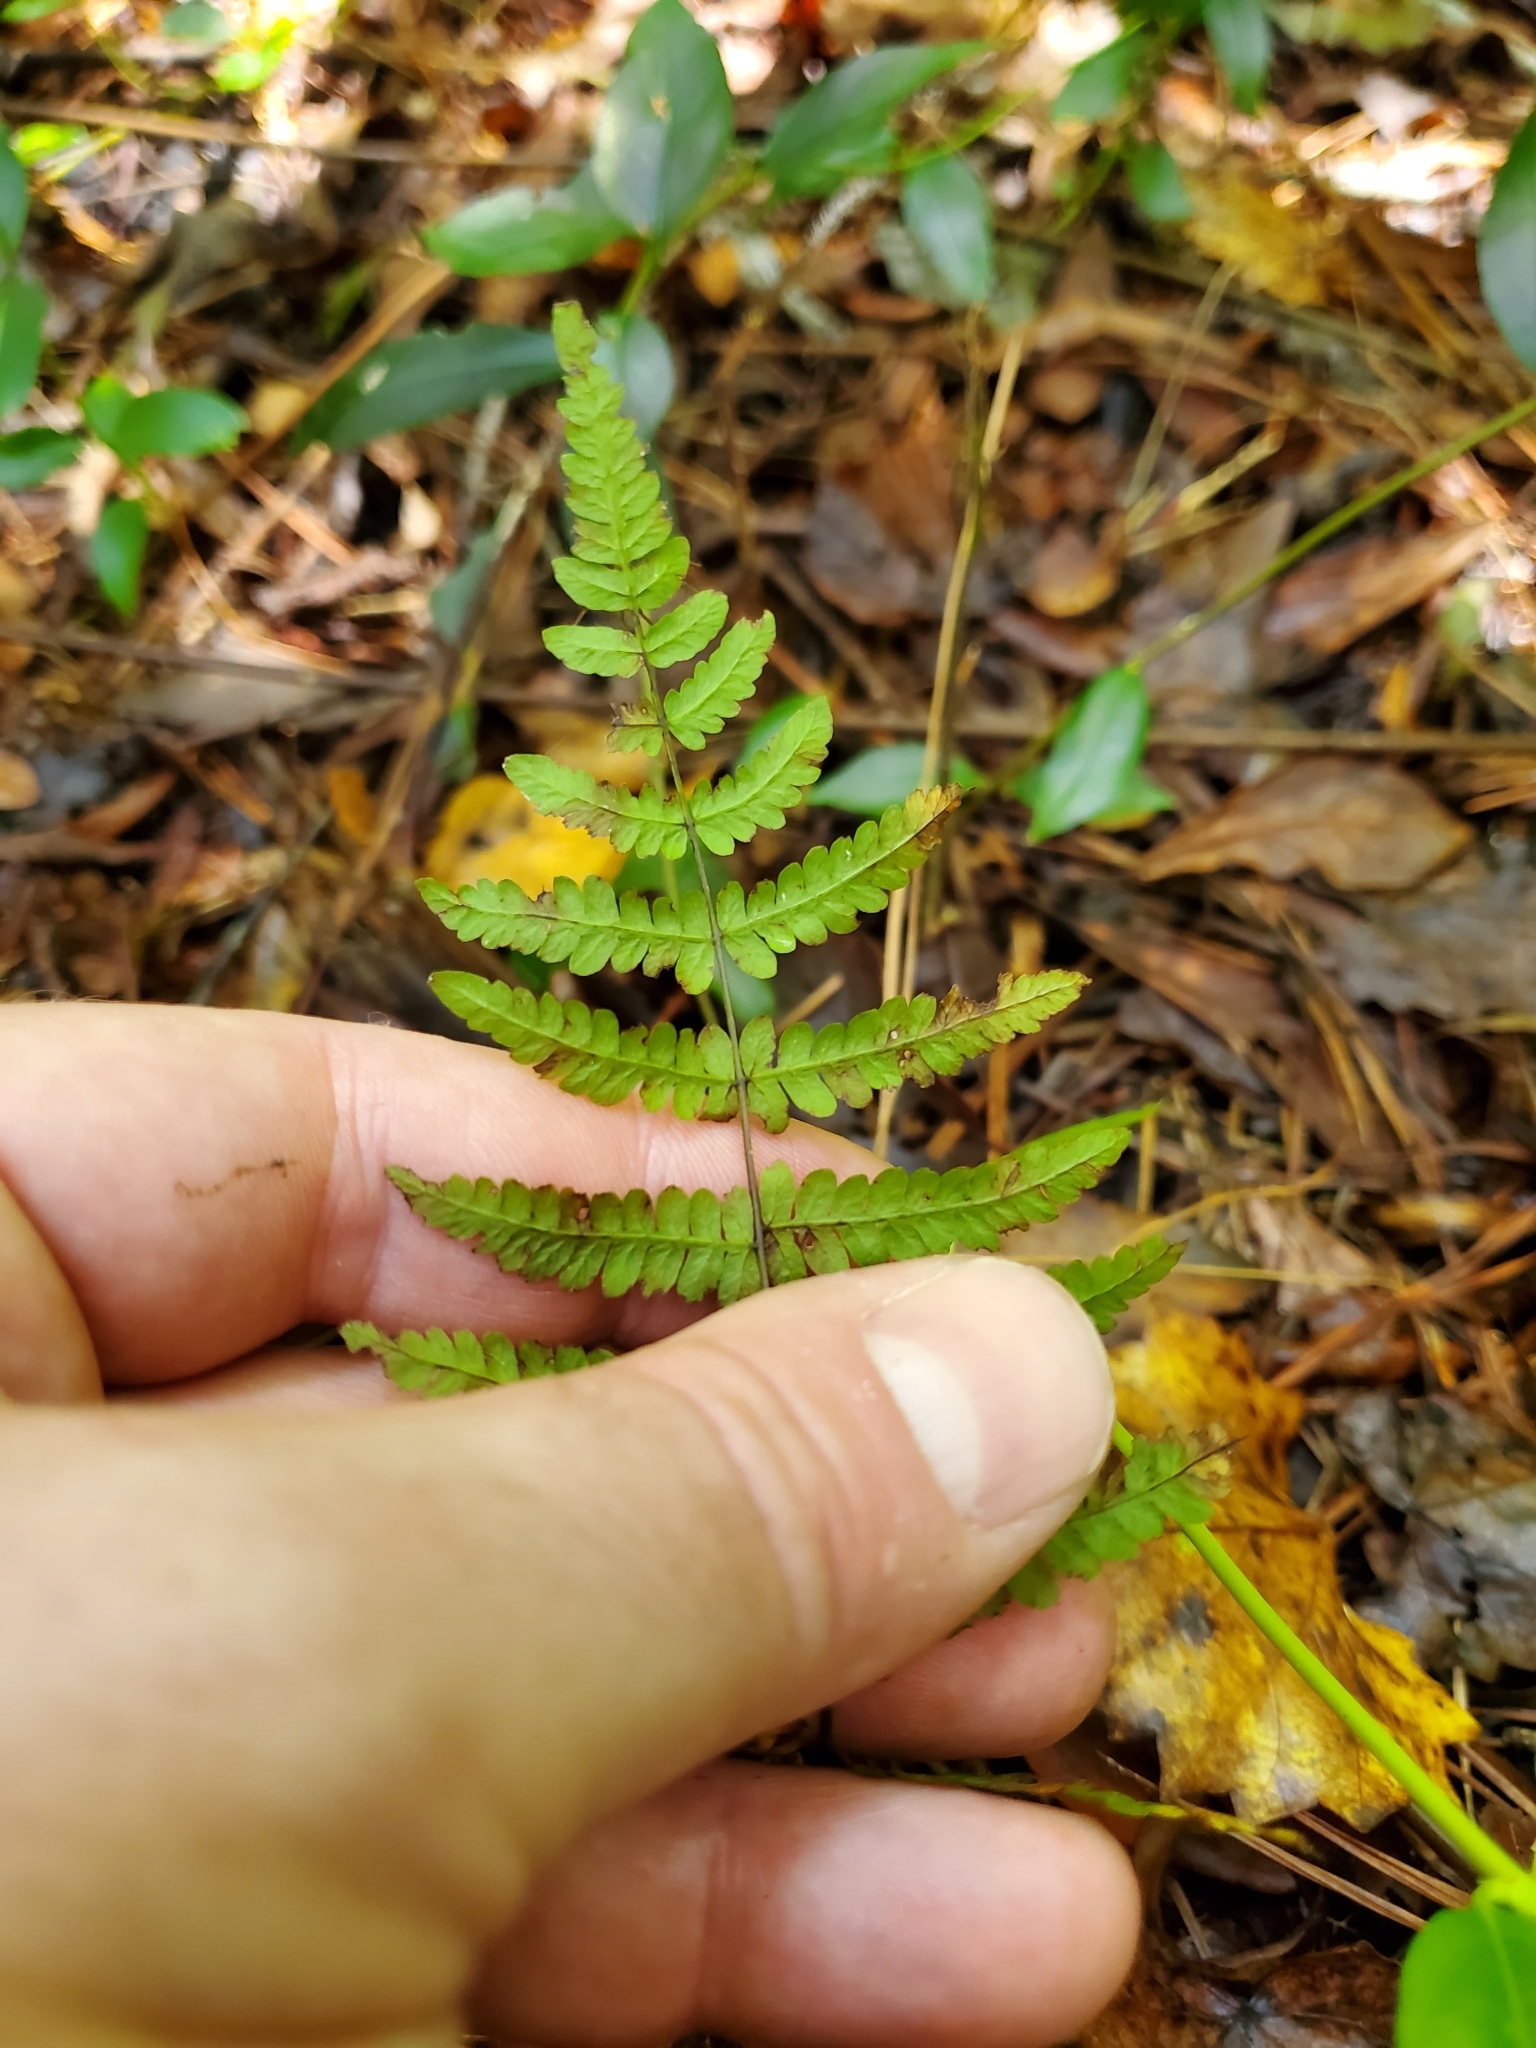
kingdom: Plantae
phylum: Tracheophyta
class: Polypodiopsida
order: Polypodiales
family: Thelypteridaceae
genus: Thelypteris
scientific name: Thelypteris palustris
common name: Marsh fern
